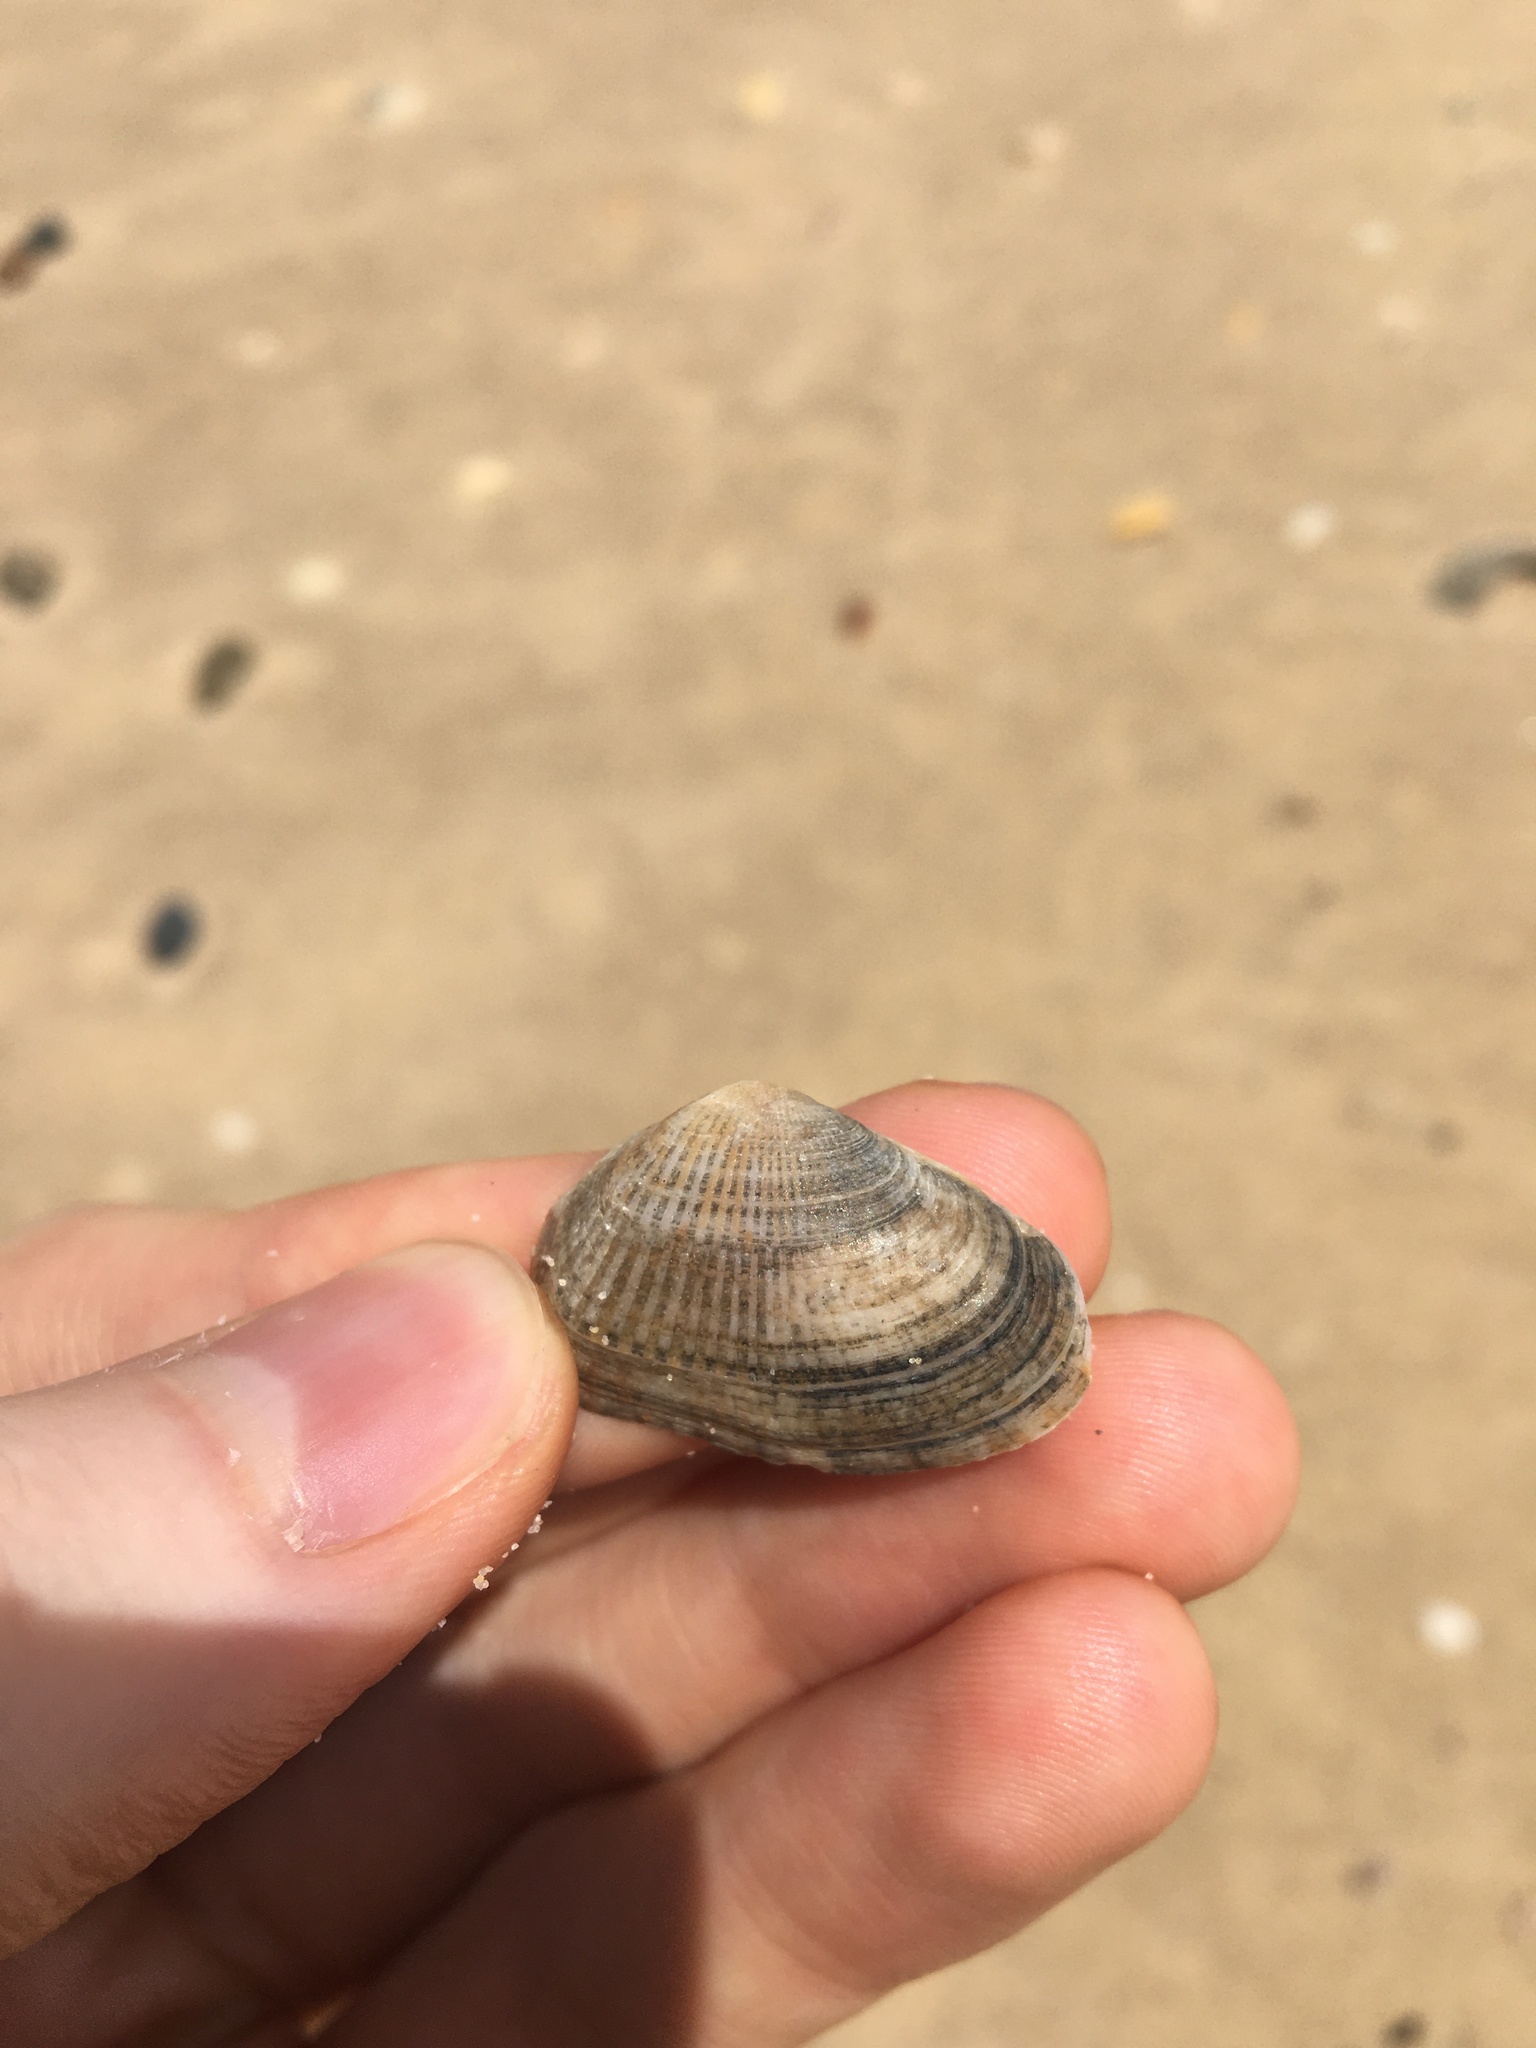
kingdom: Animalia
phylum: Mollusca
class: Bivalvia
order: Venerida
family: Hemidonacidae
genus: Hemidonax
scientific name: Hemidonax dactylus
